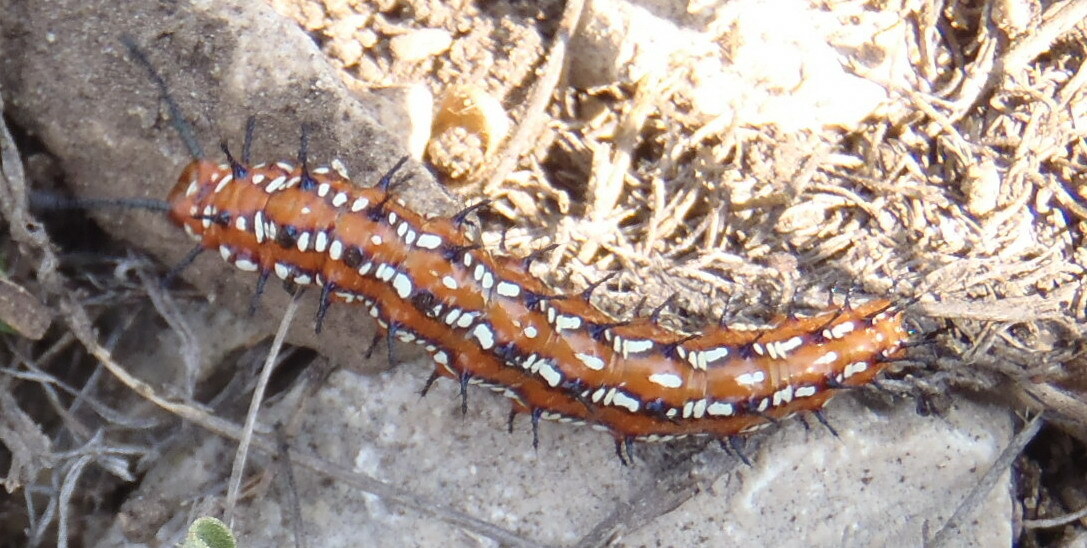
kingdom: Animalia
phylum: Arthropoda
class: Insecta
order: Lepidoptera
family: Nymphalidae
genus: Euptoieta
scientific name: Euptoieta claudia
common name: Variegated fritillary
